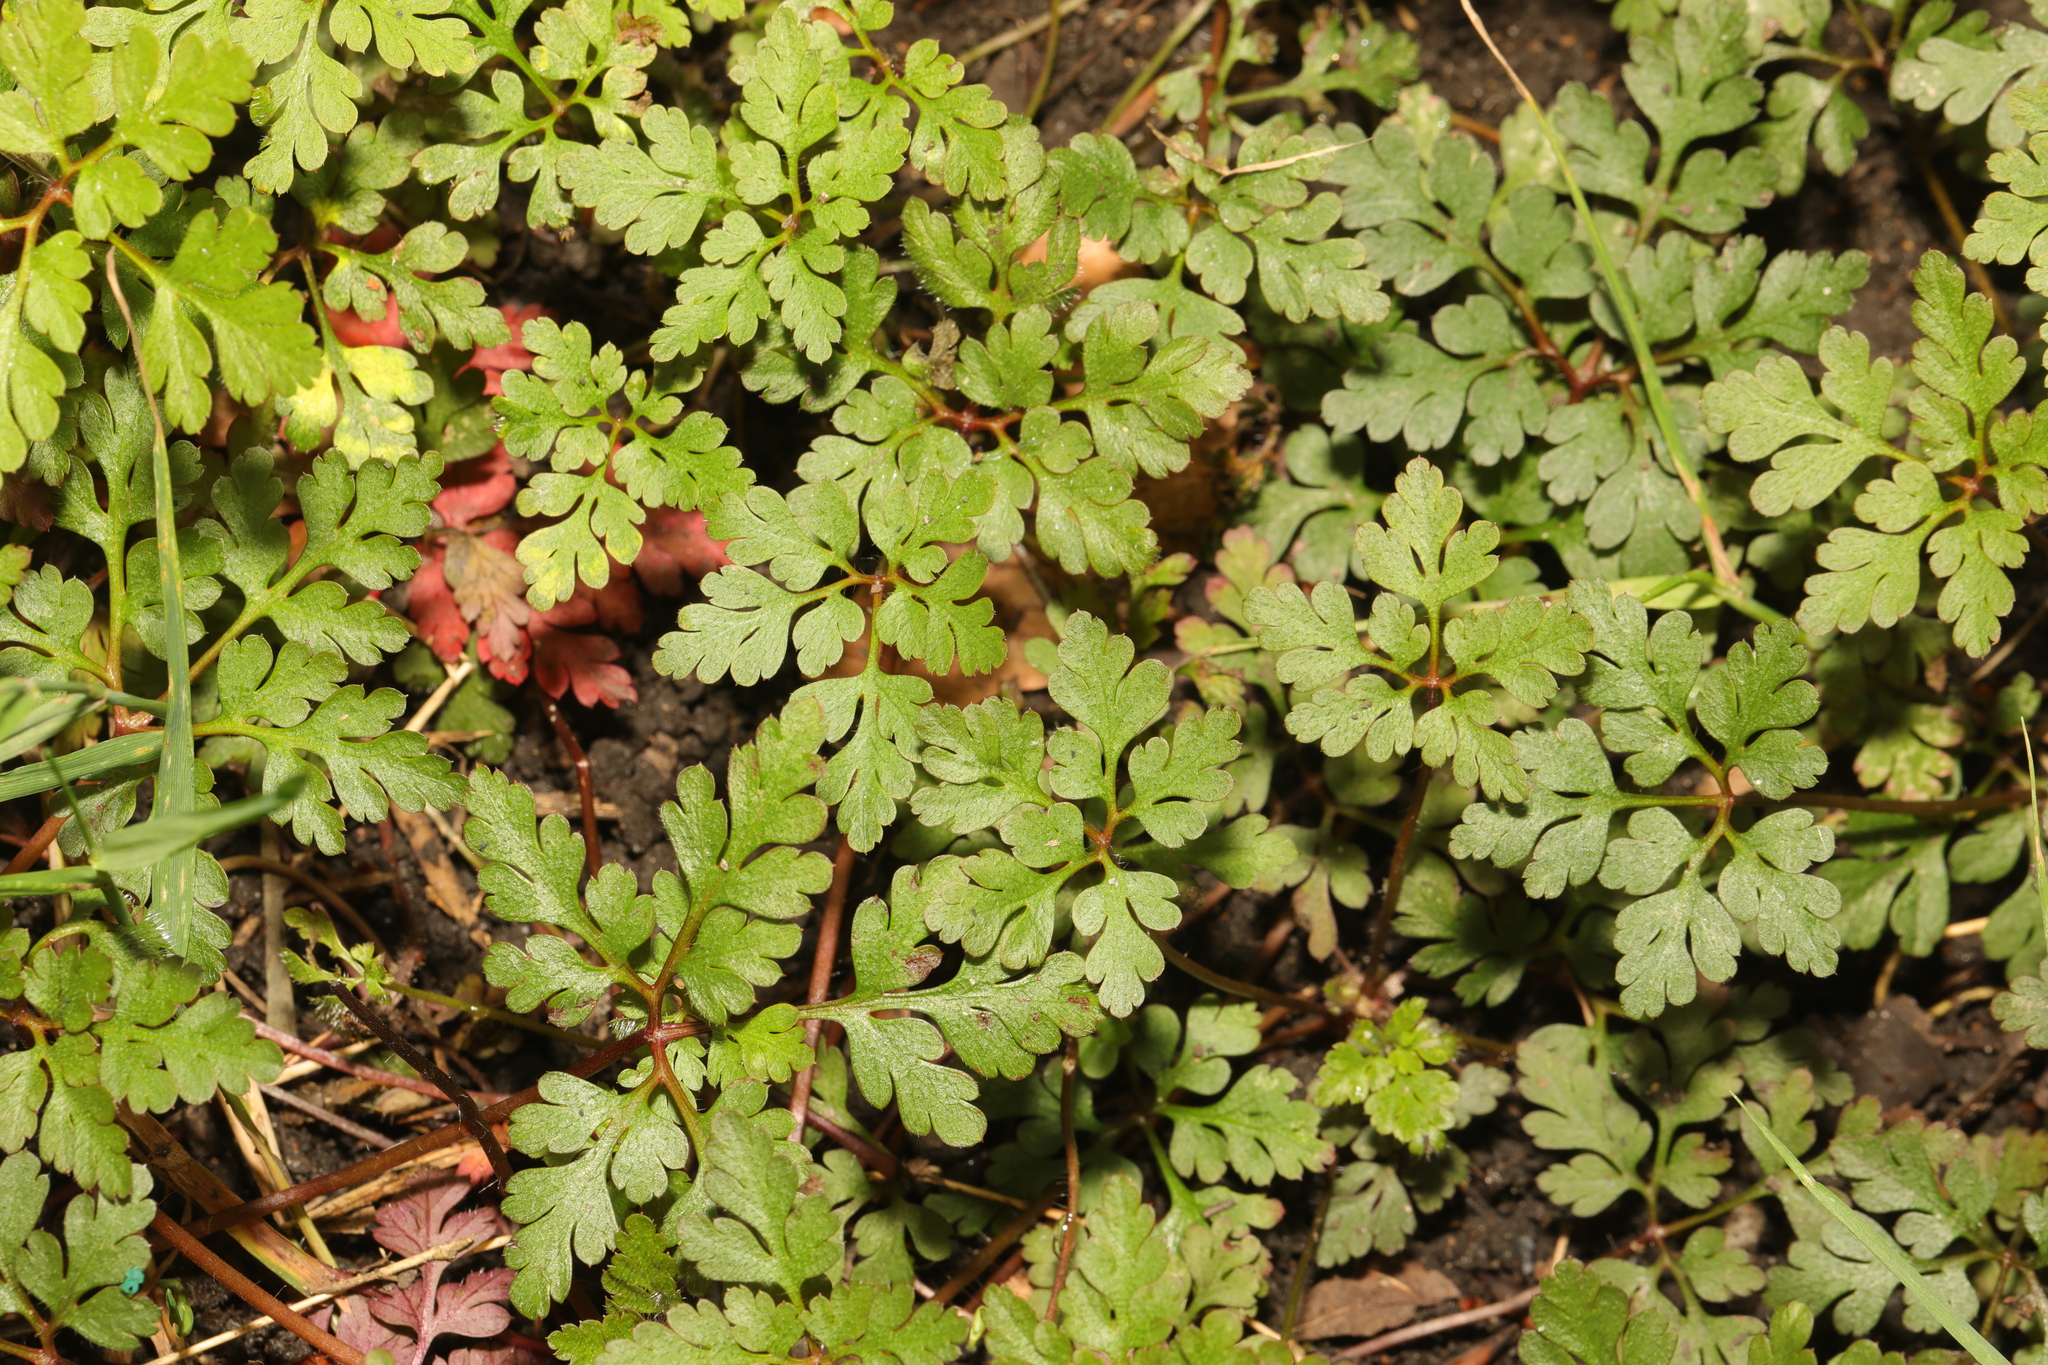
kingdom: Plantae
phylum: Tracheophyta
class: Magnoliopsida
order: Geraniales
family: Geraniaceae
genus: Geranium
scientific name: Geranium robertianum
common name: Herb-robert
